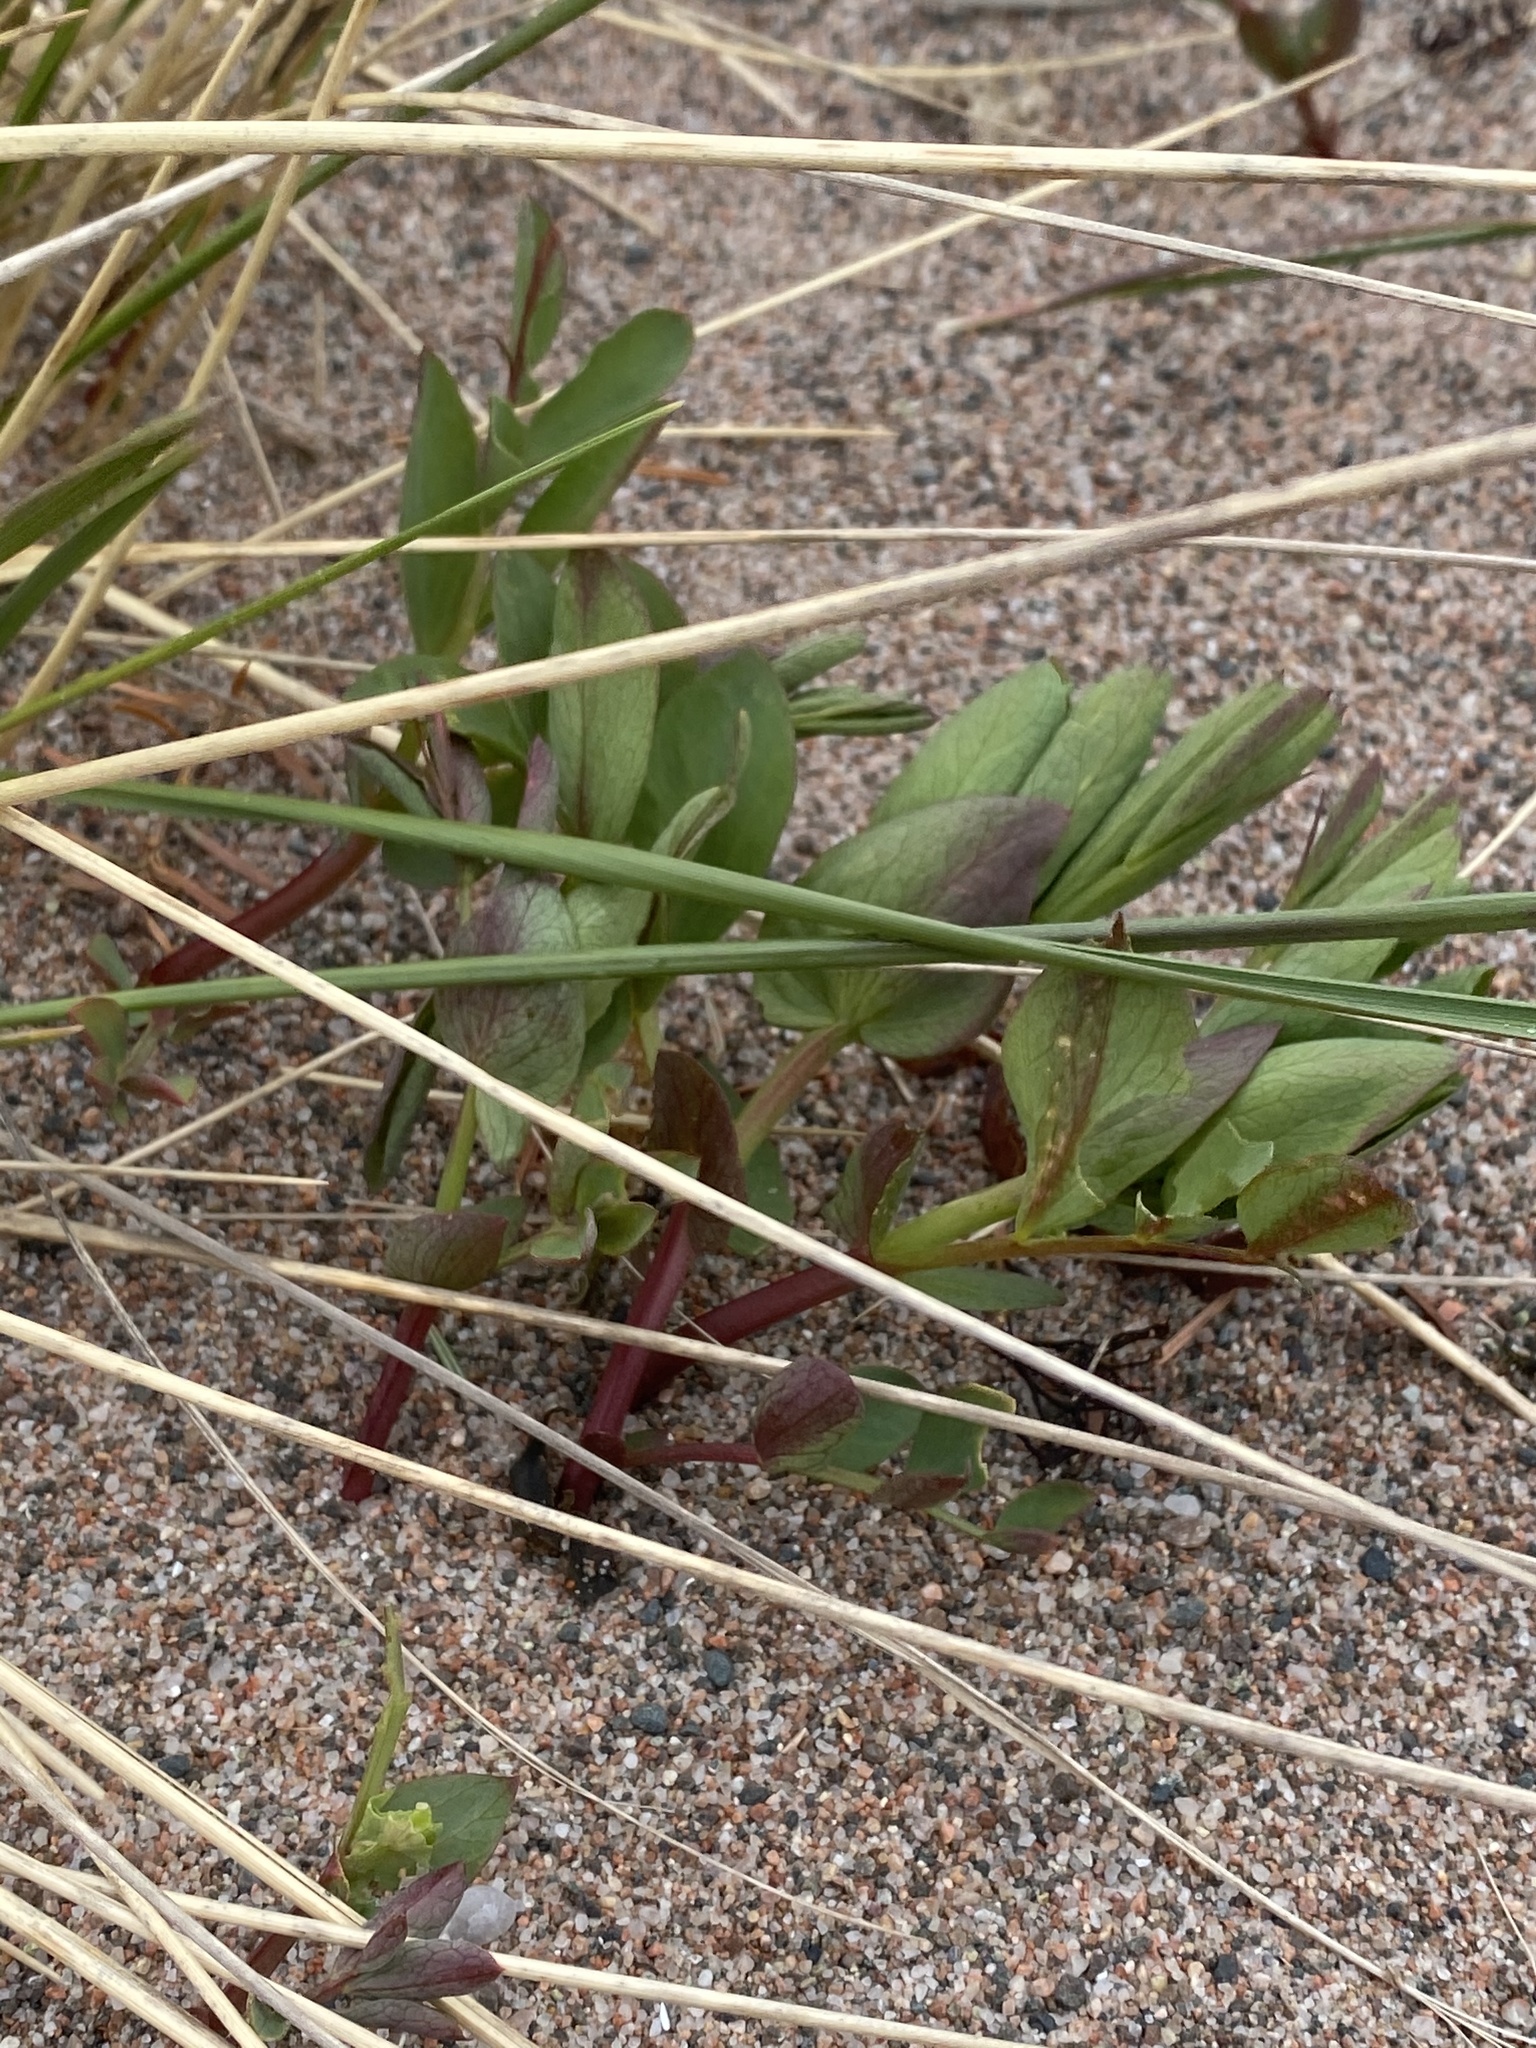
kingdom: Plantae
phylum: Tracheophyta
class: Magnoliopsida
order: Fabales
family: Fabaceae
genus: Lathyrus
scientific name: Lathyrus japonicus
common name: Sea pea
